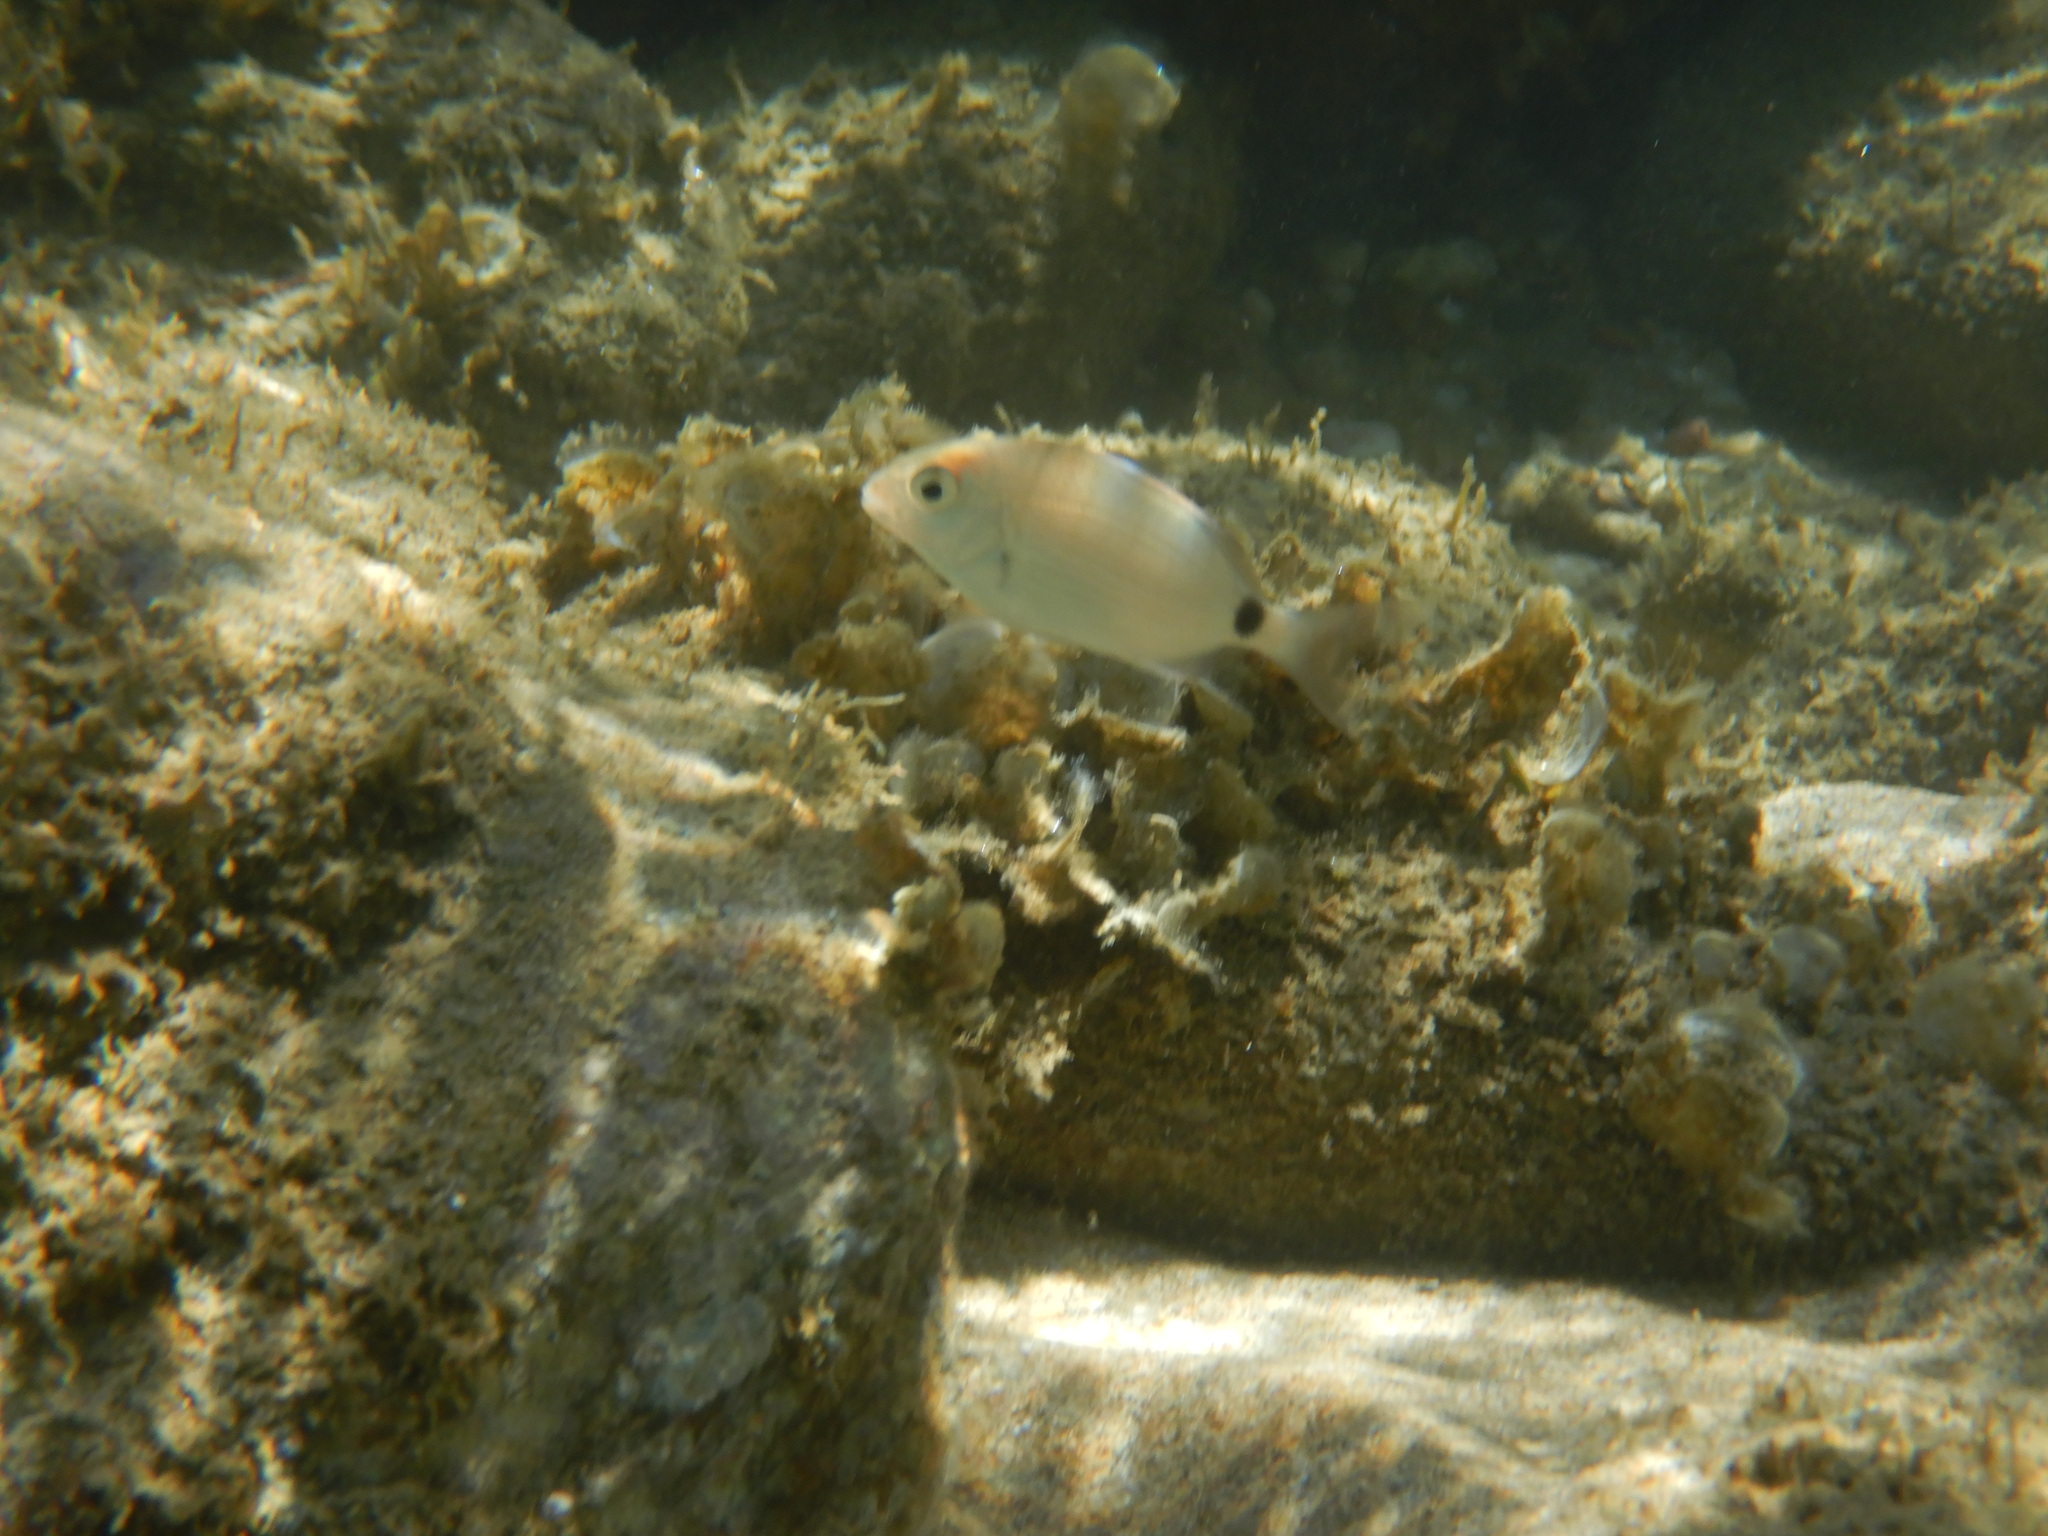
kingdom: Animalia
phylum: Chordata
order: Perciformes
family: Sparidae
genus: Diplodus
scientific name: Diplodus sargus
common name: White seabream
